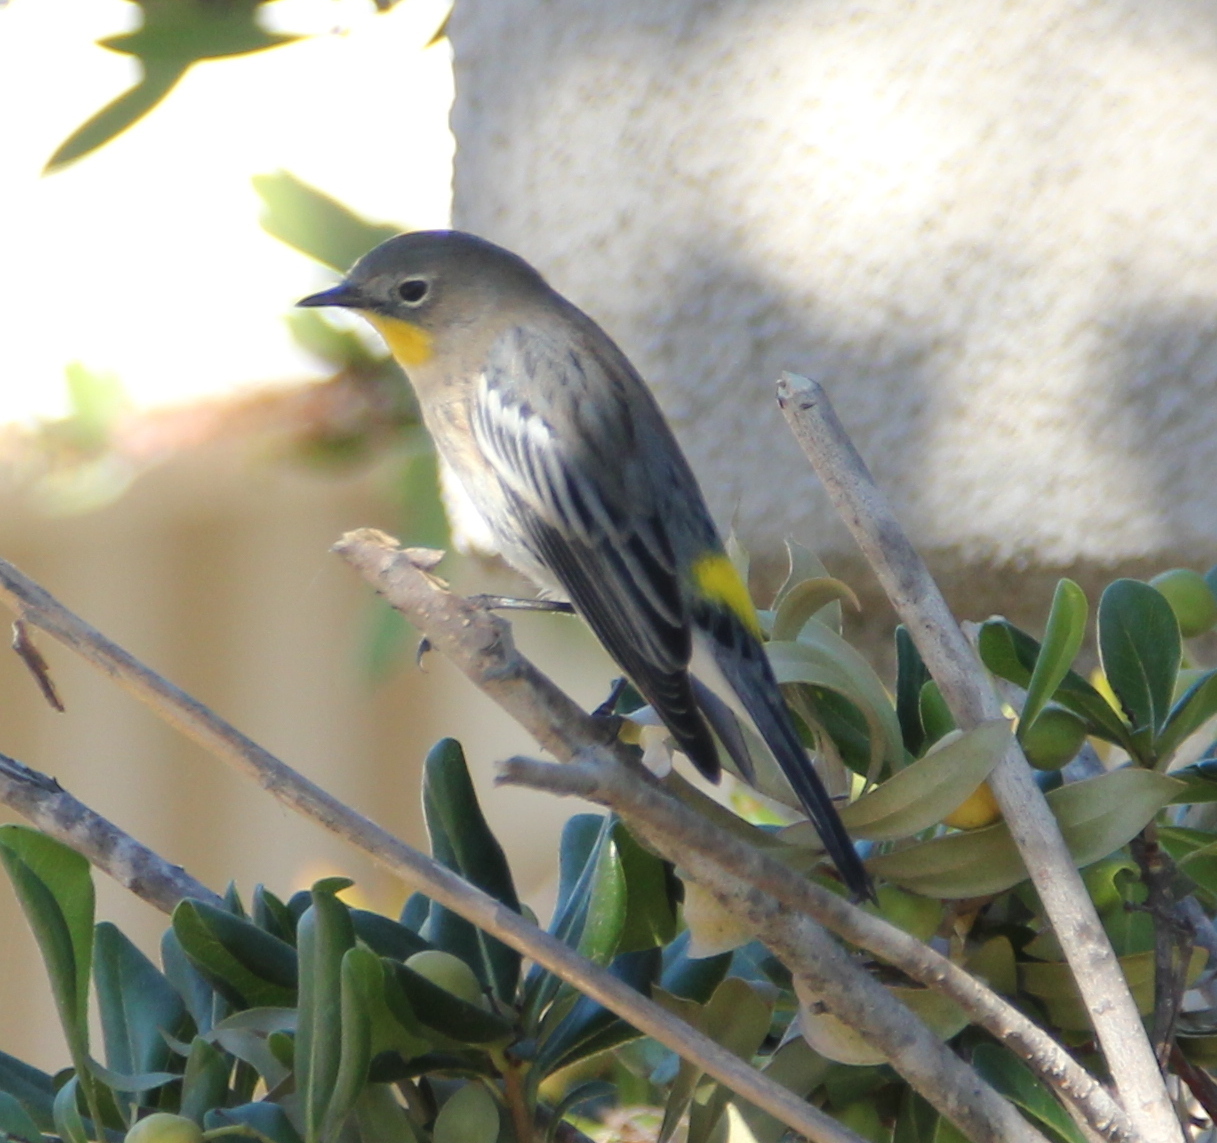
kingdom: Animalia
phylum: Chordata
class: Aves
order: Passeriformes
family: Parulidae
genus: Setophaga
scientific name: Setophaga auduboni
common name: Audubon's warbler
